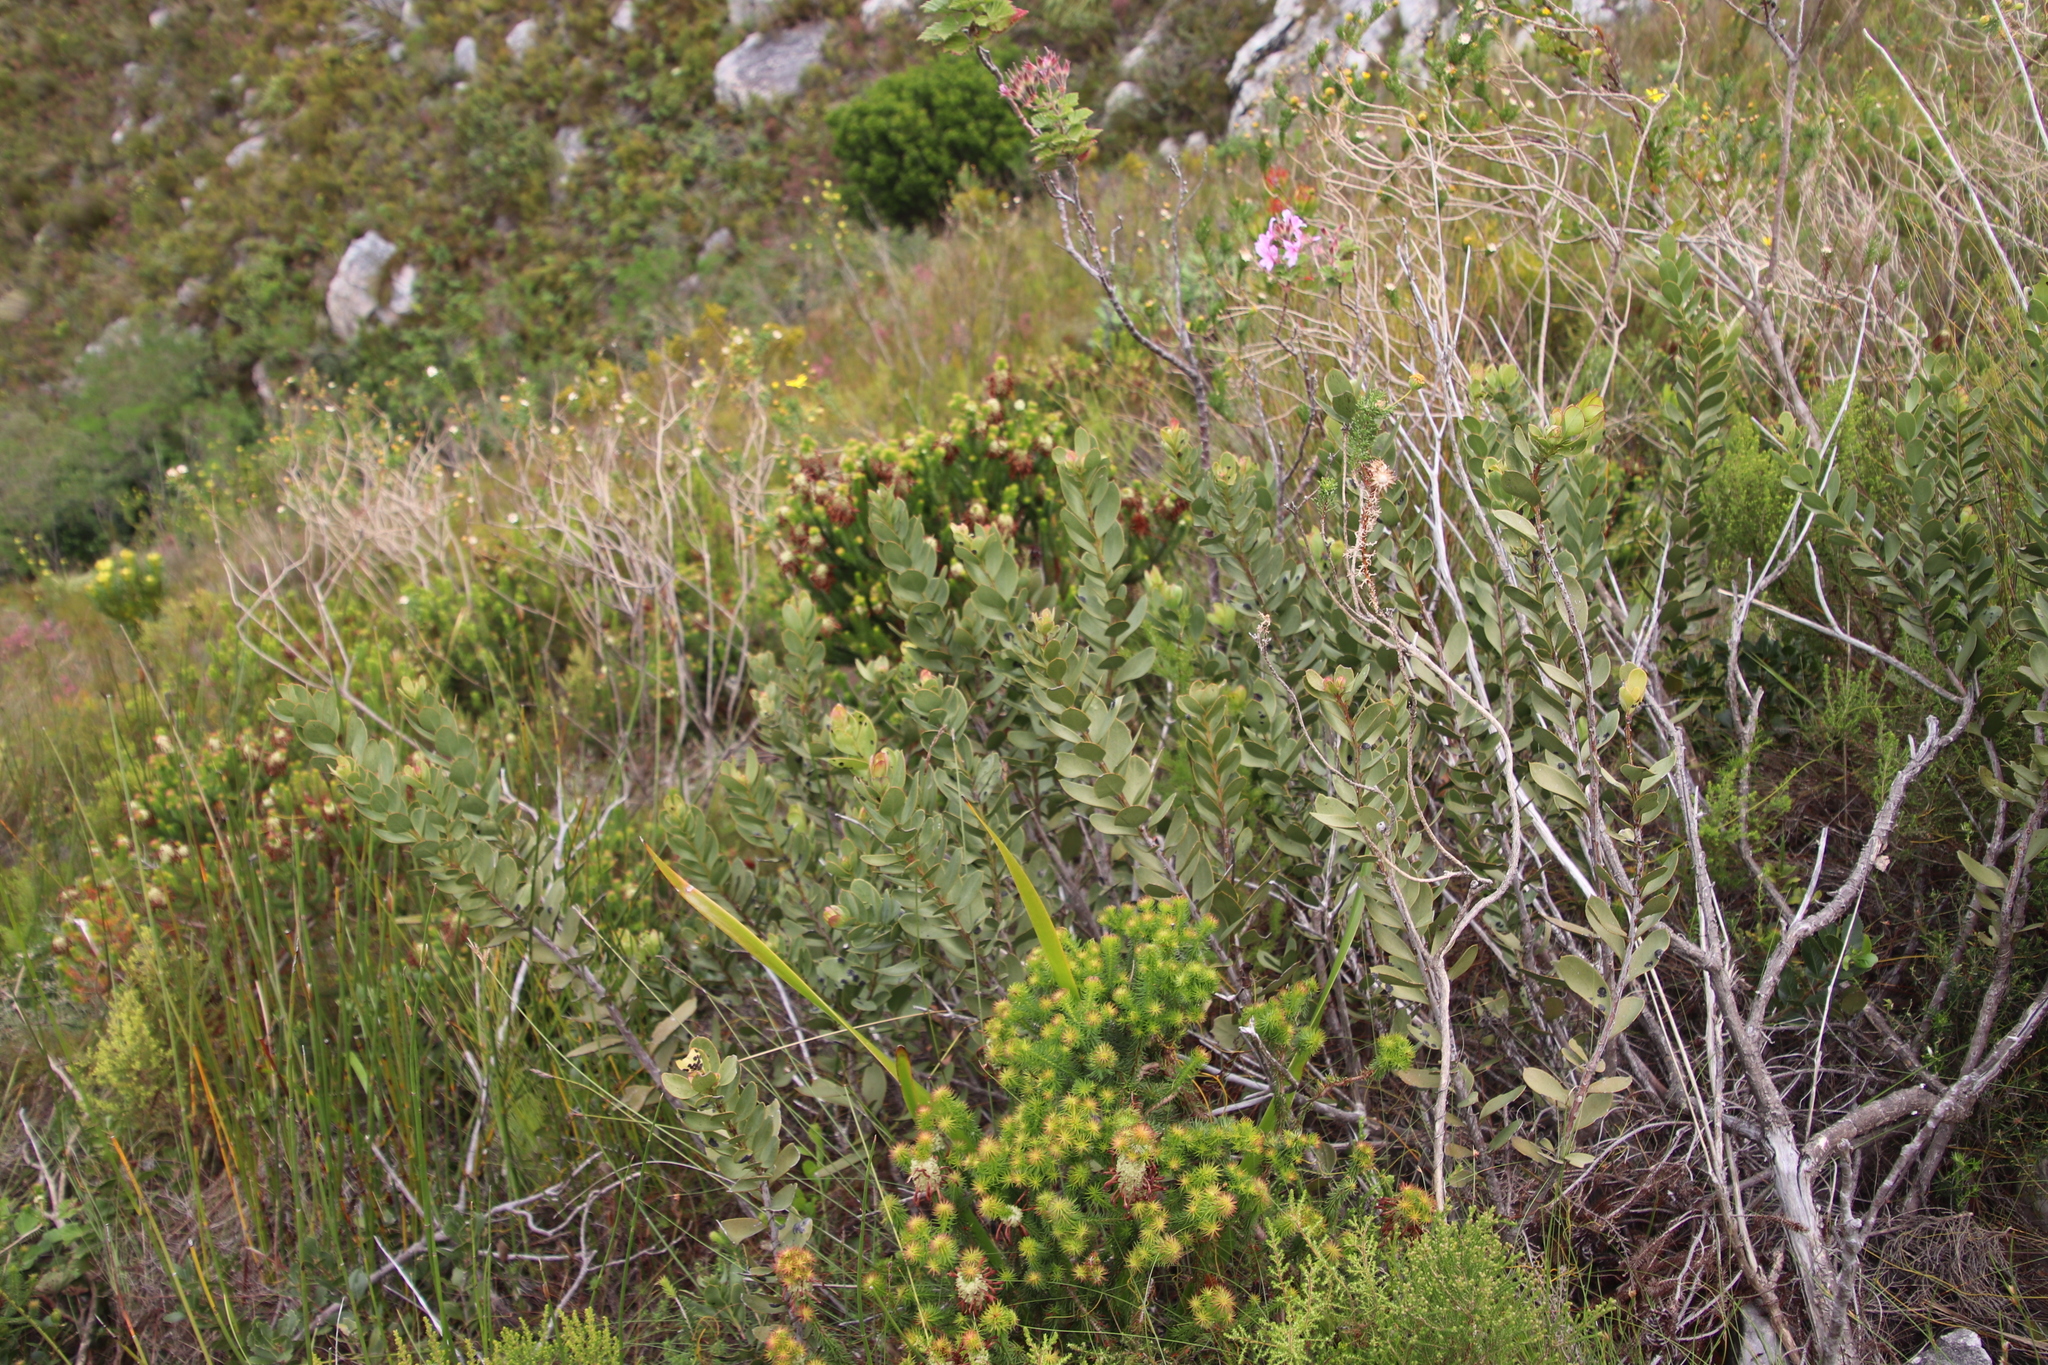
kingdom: Plantae
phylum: Tracheophyta
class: Magnoliopsida
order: Santalales
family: Santalaceae
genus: Osyris
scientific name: Osyris compressa
